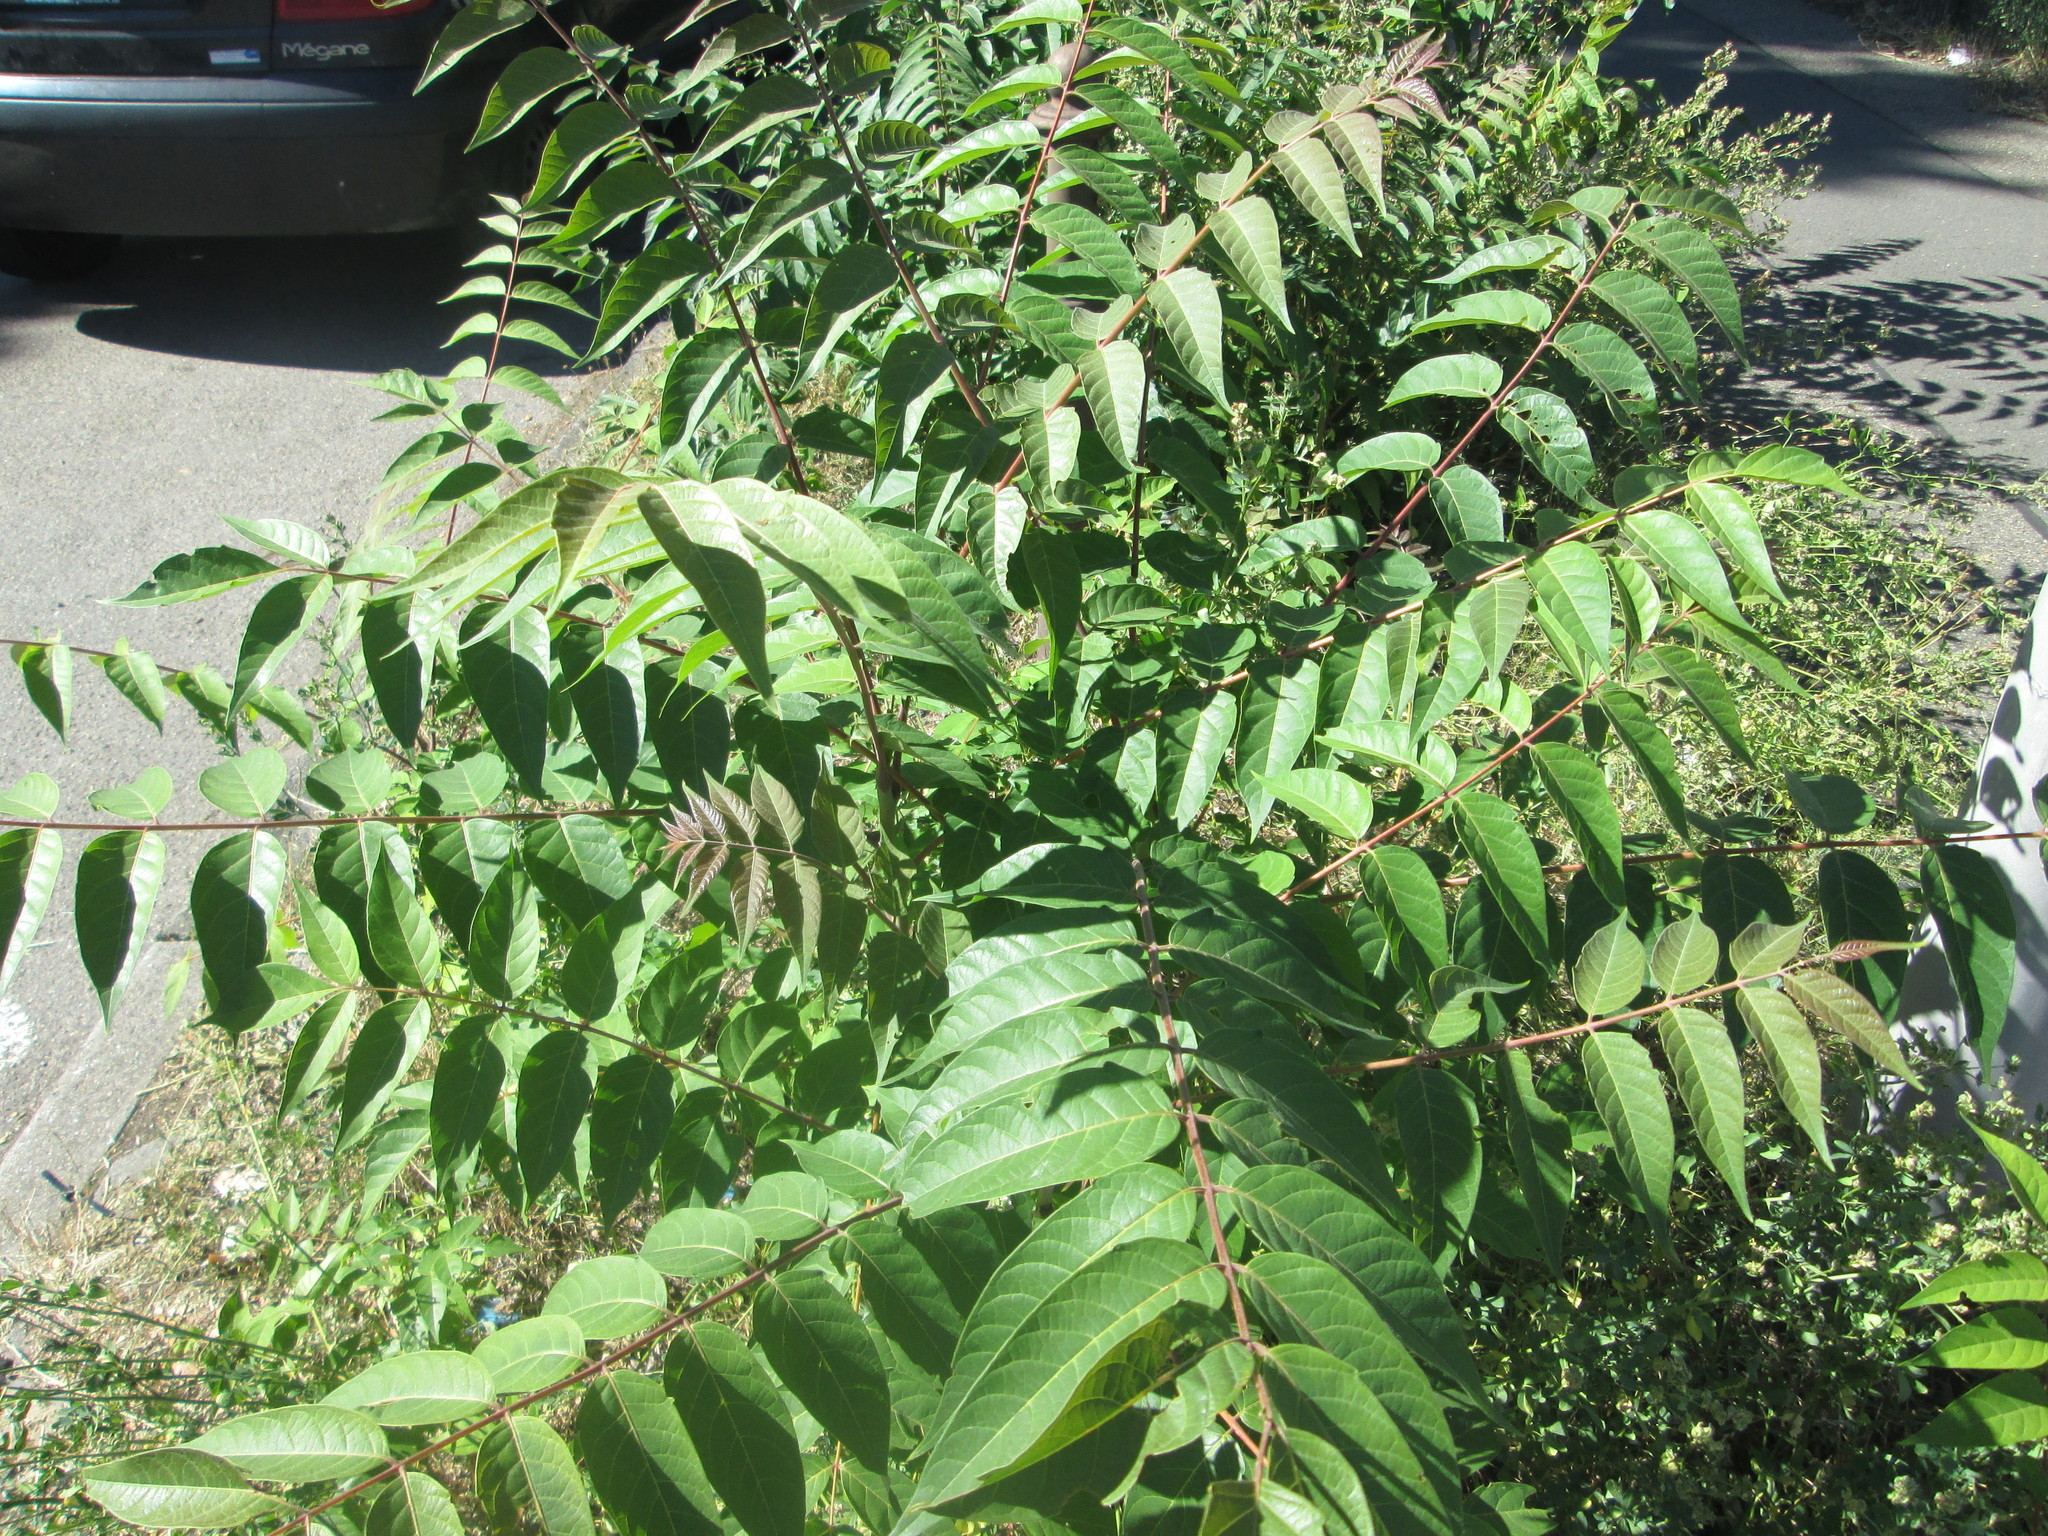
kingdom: Plantae
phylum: Tracheophyta
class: Magnoliopsida
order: Sapindales
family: Simaroubaceae
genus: Ailanthus
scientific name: Ailanthus altissima
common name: Tree-of-heaven
